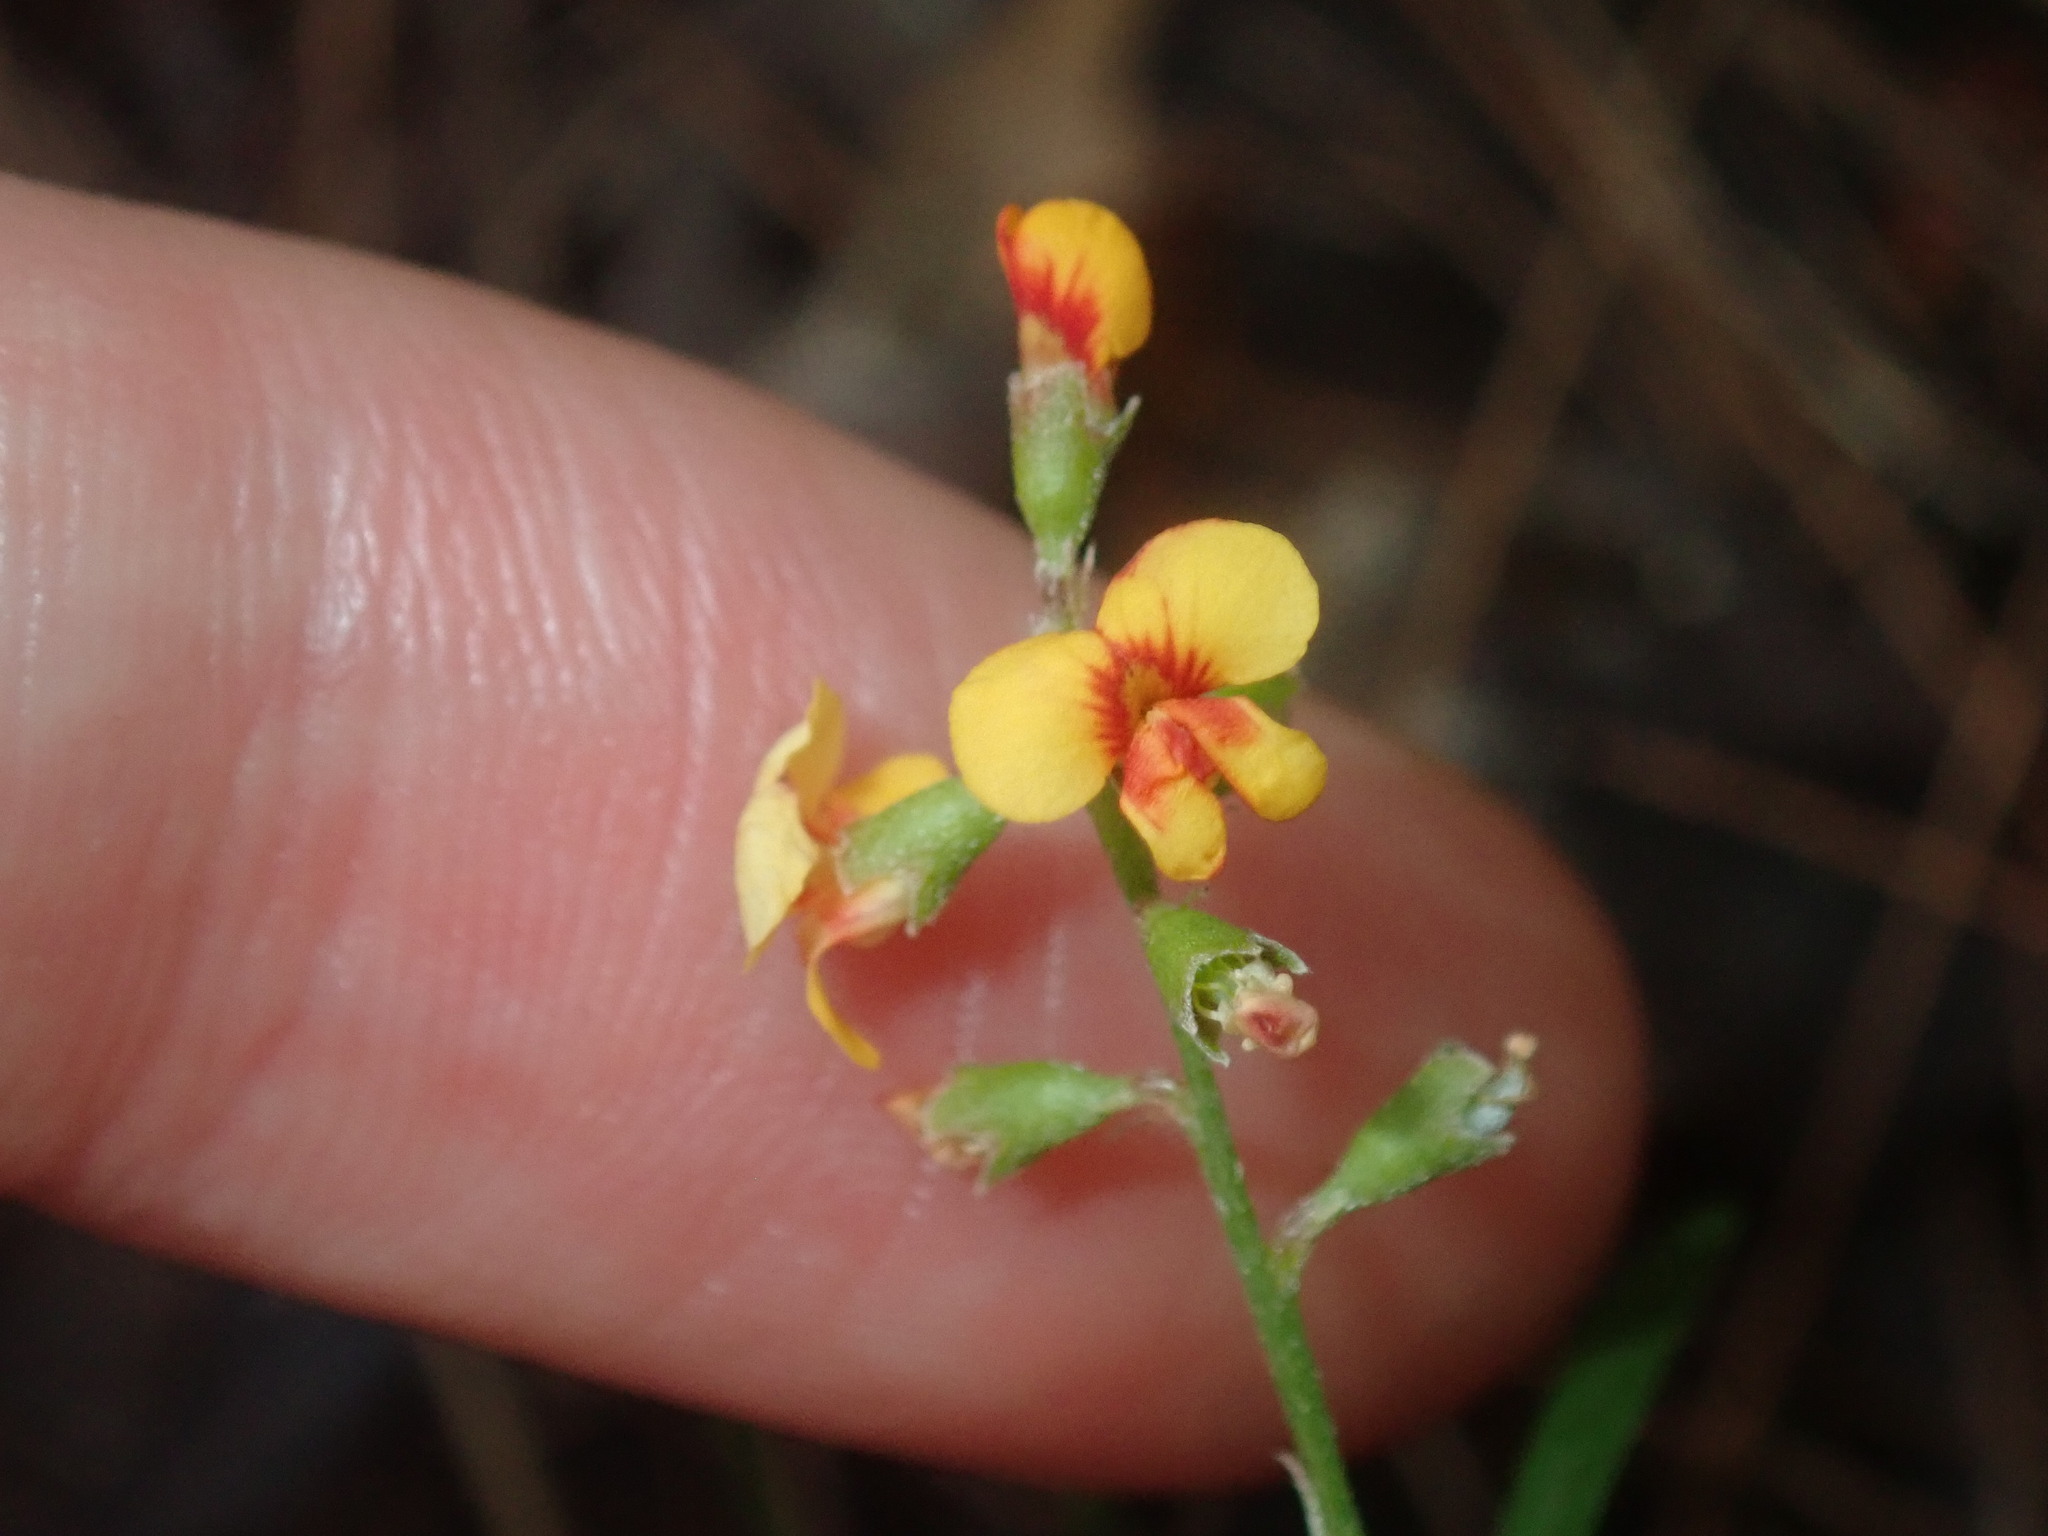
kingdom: Plantae
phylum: Tracheophyta
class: Magnoliopsida
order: Fabales
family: Fabaceae
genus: Chorizema
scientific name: Chorizema parviflorum
